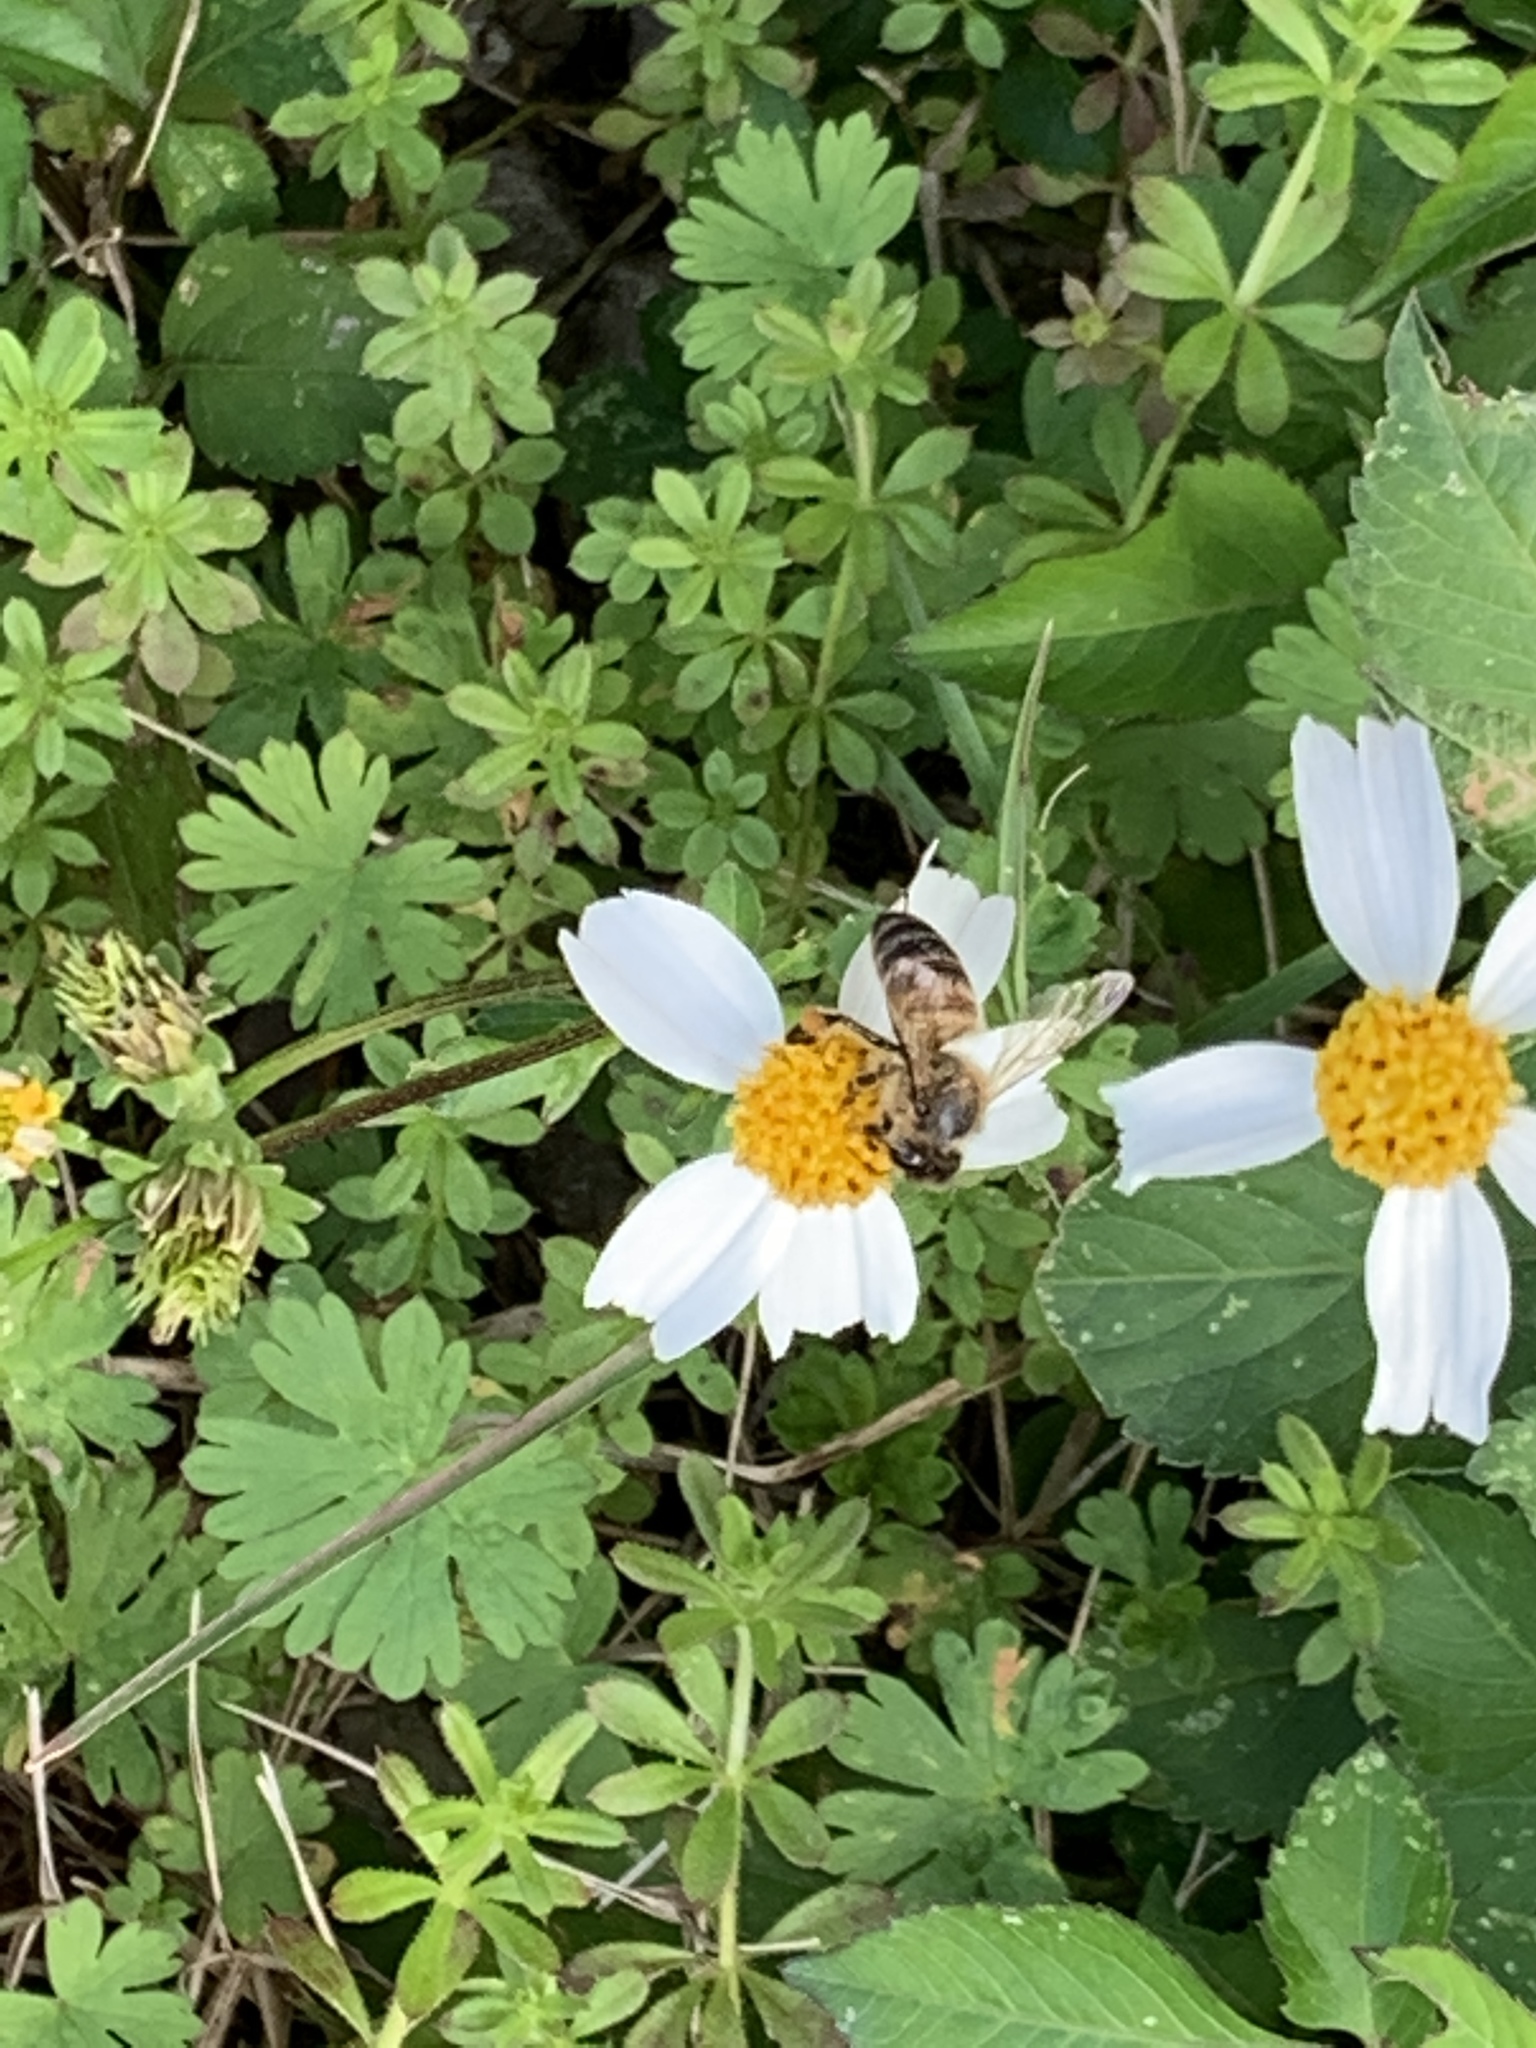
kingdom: Animalia
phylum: Arthropoda
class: Insecta
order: Hymenoptera
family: Apidae
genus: Apis
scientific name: Apis mellifera
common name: Honey bee
